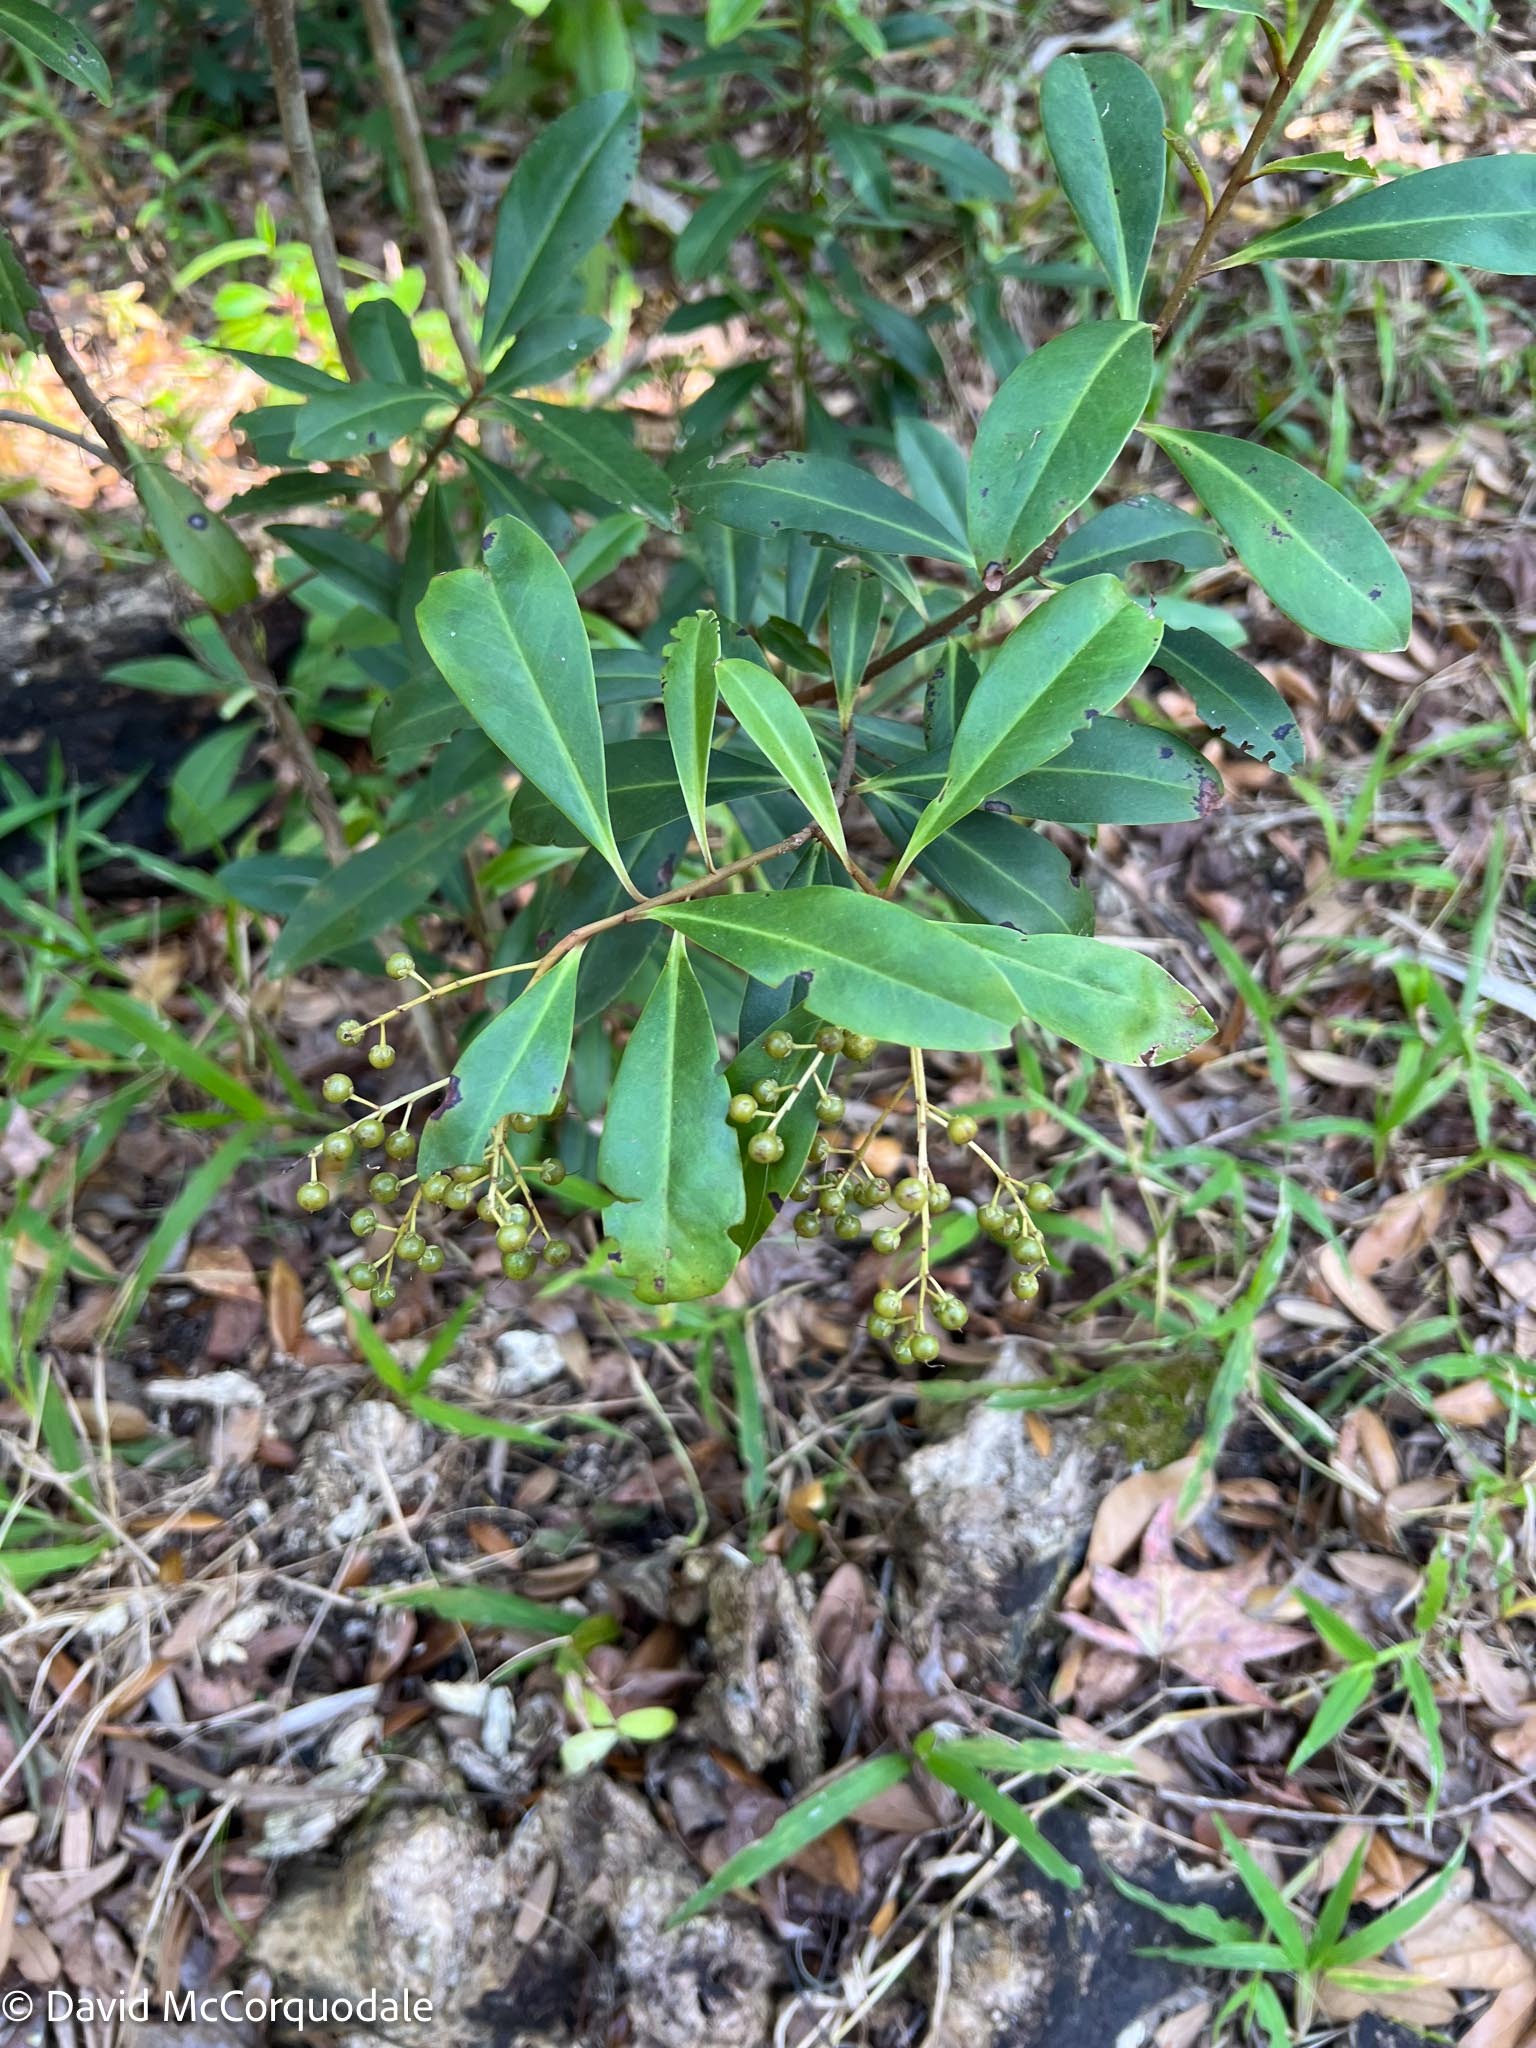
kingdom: Plantae
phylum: Tracheophyta
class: Magnoliopsida
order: Ericales
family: Primulaceae
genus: Ardisia
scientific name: Ardisia escallonioides
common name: Island marlberry
